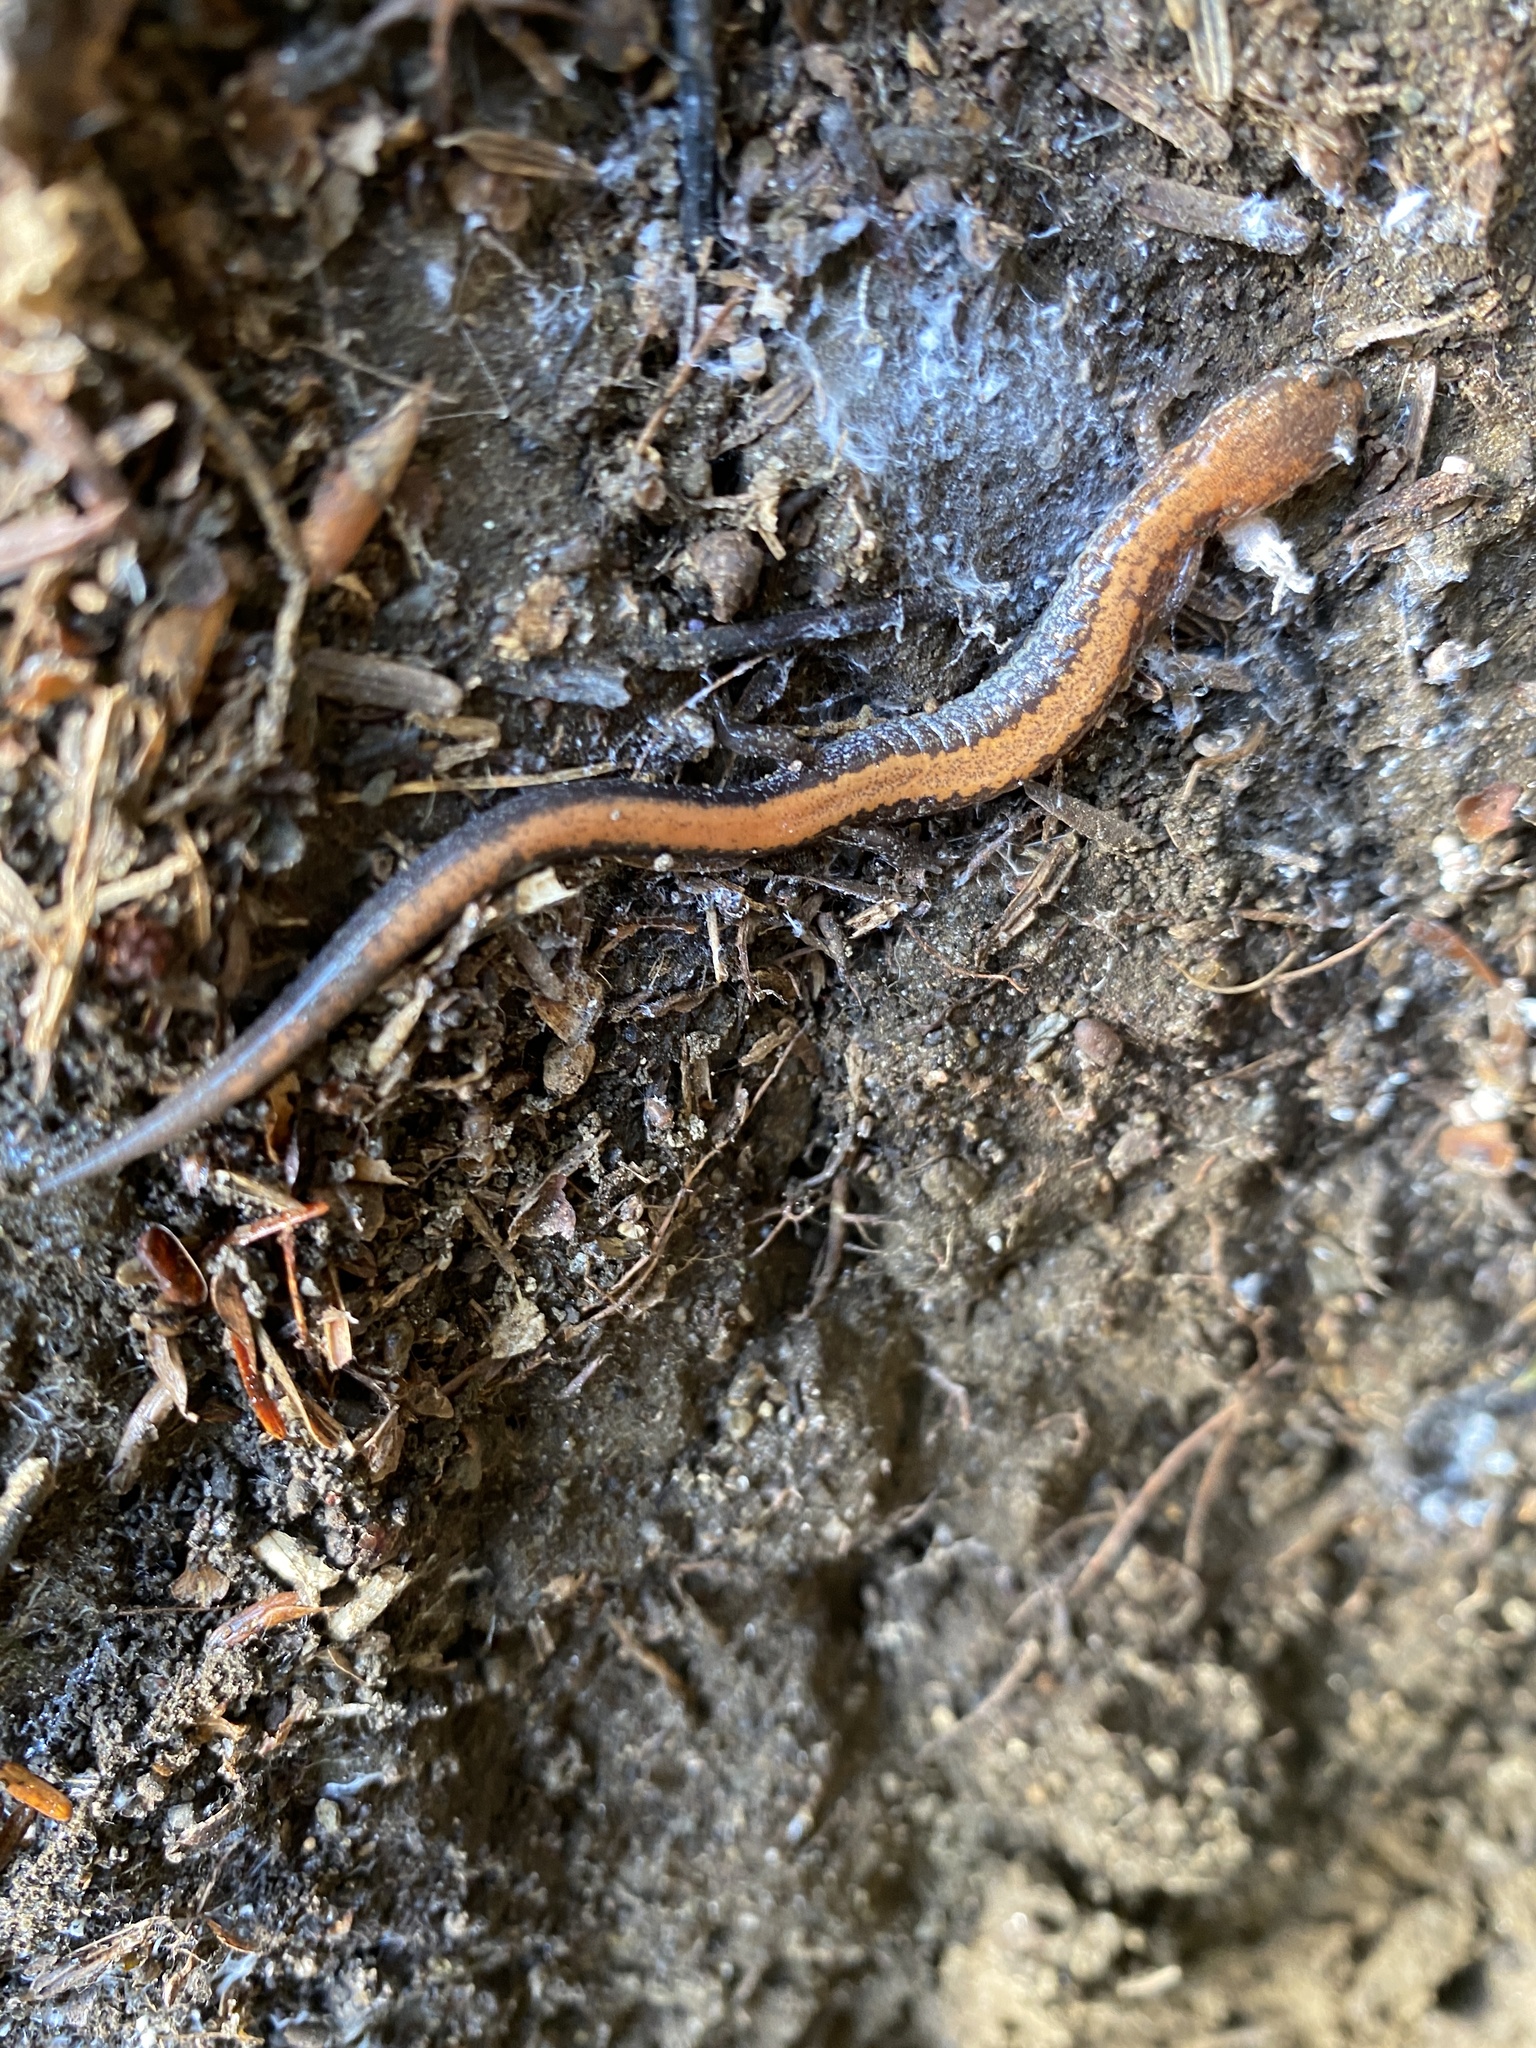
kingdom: Animalia
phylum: Chordata
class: Amphibia
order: Caudata
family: Plethodontidae
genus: Plethodon
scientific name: Plethodon cinereus
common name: Redback salamander
